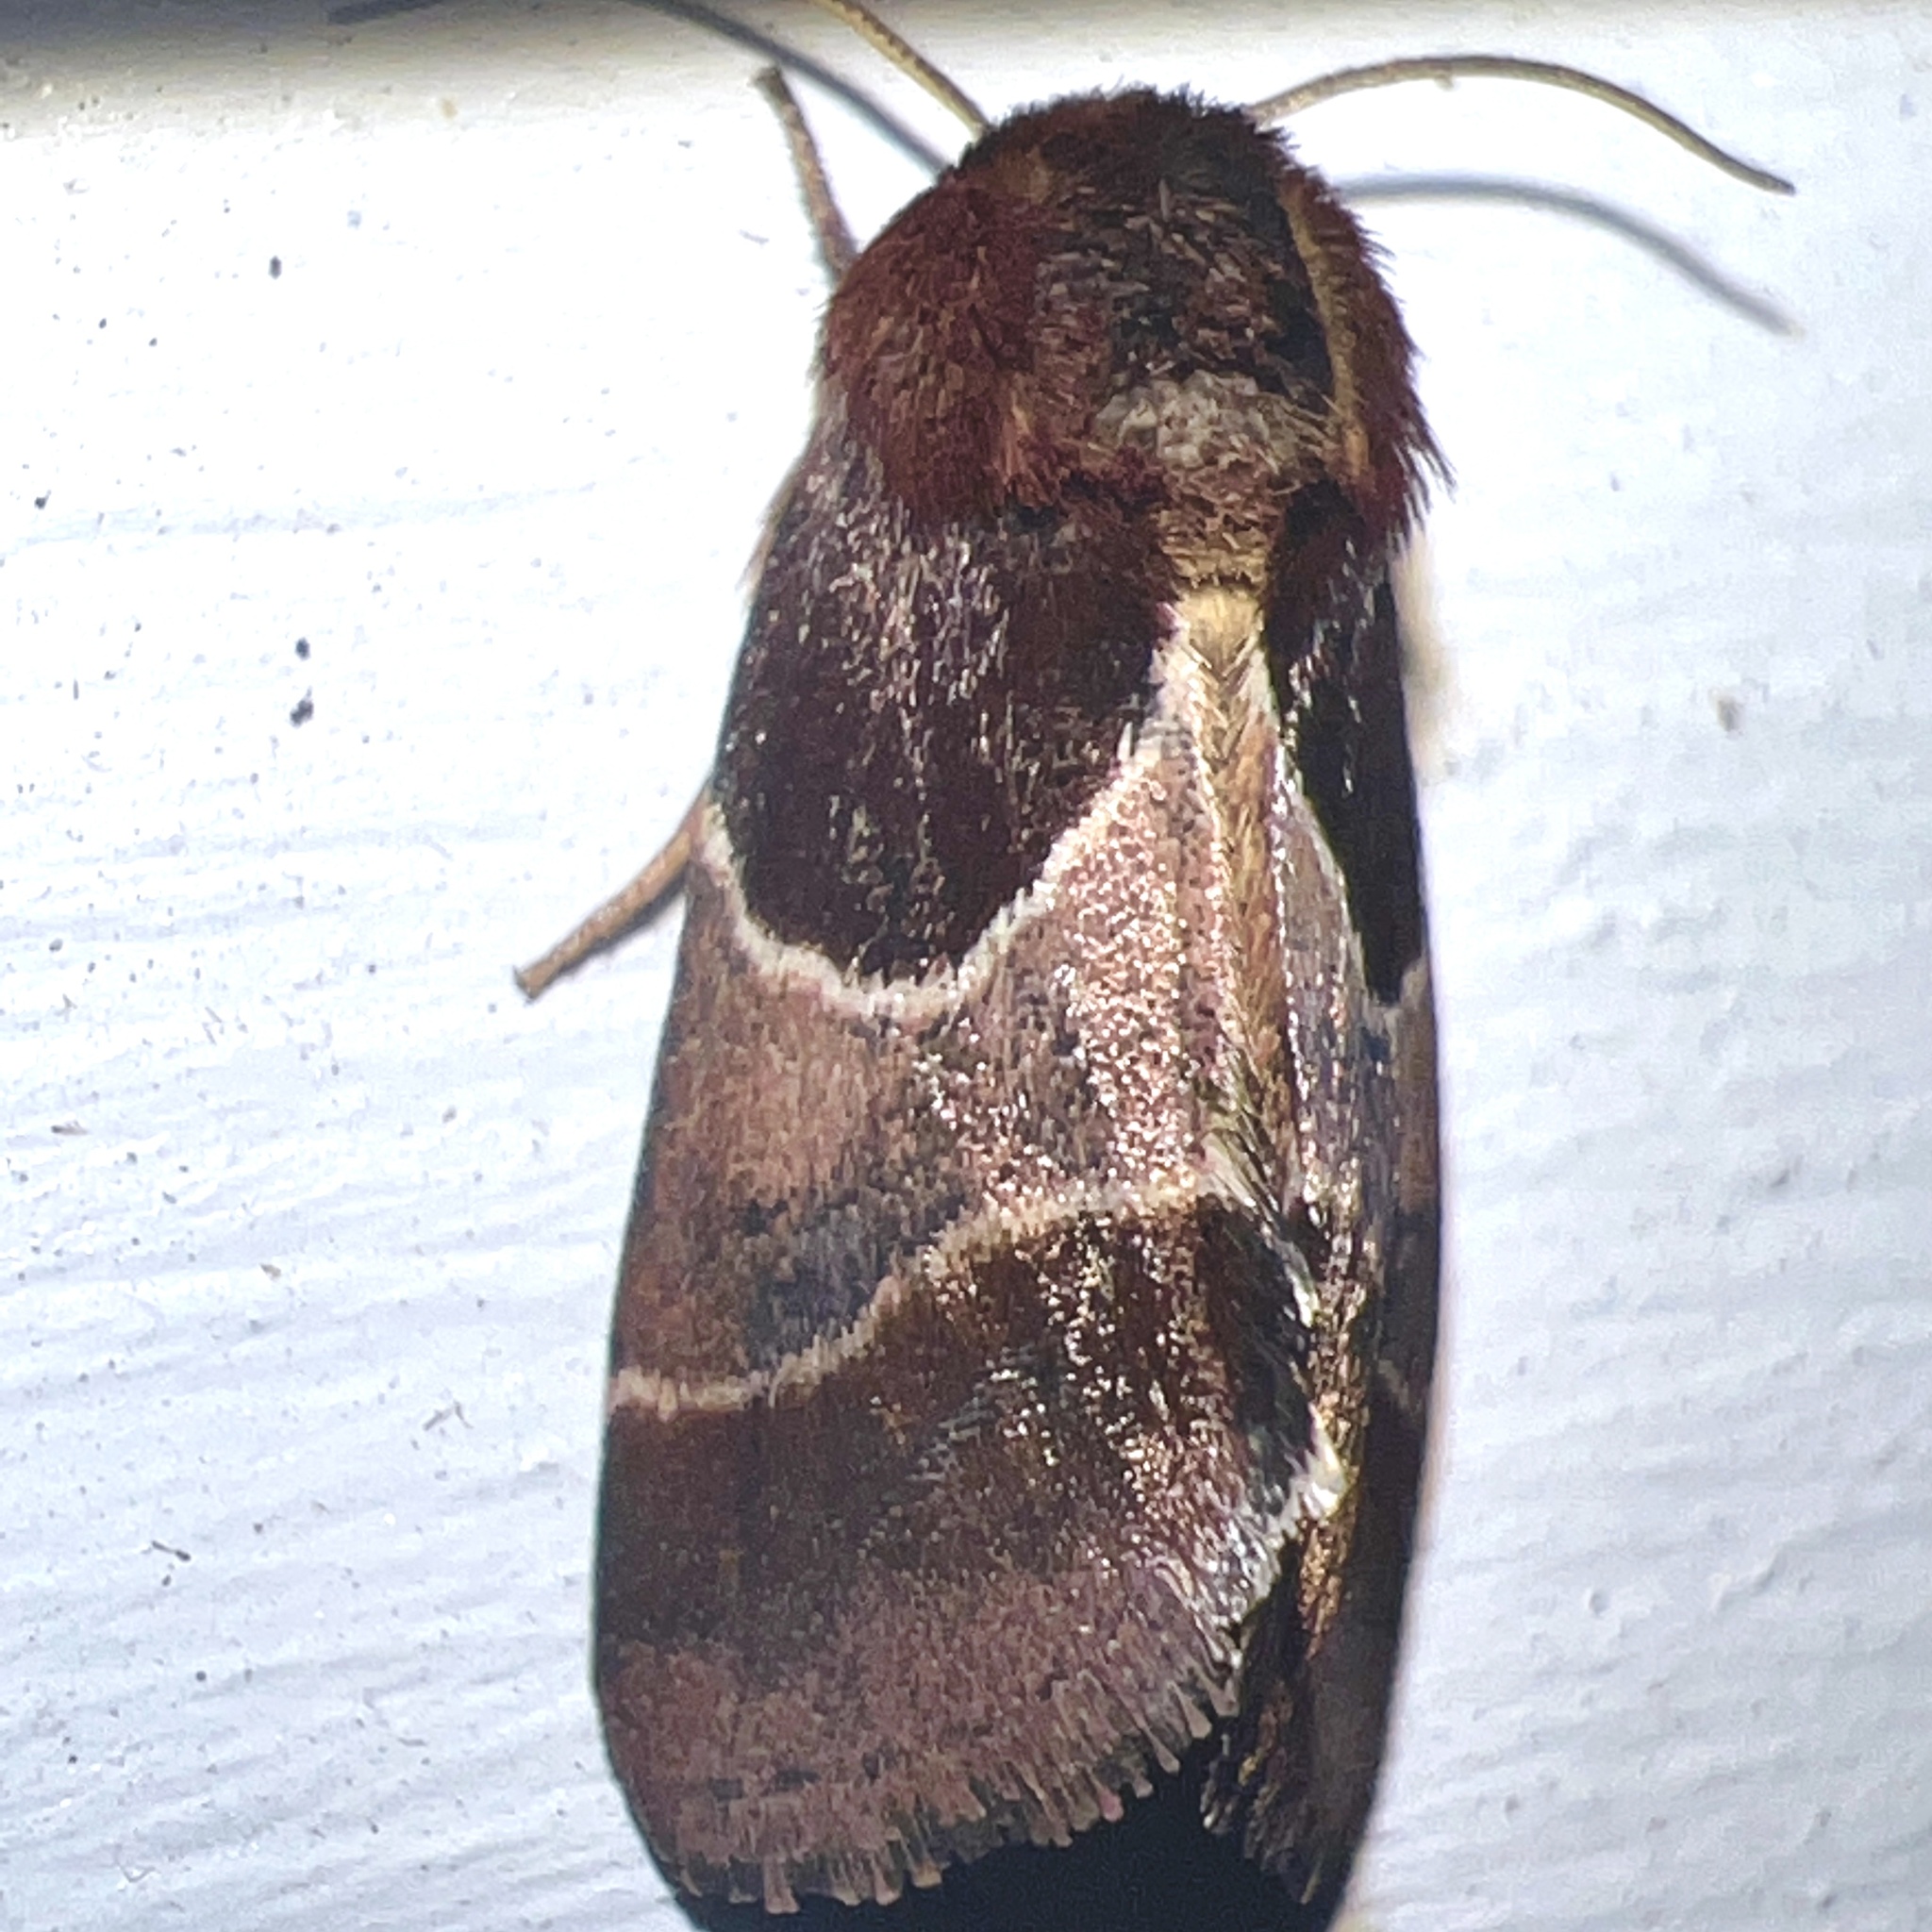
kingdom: Animalia
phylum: Arthropoda
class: Insecta
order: Lepidoptera
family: Noctuidae
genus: Schinia
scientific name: Schinia arcigera
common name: Arcigera flower moth
